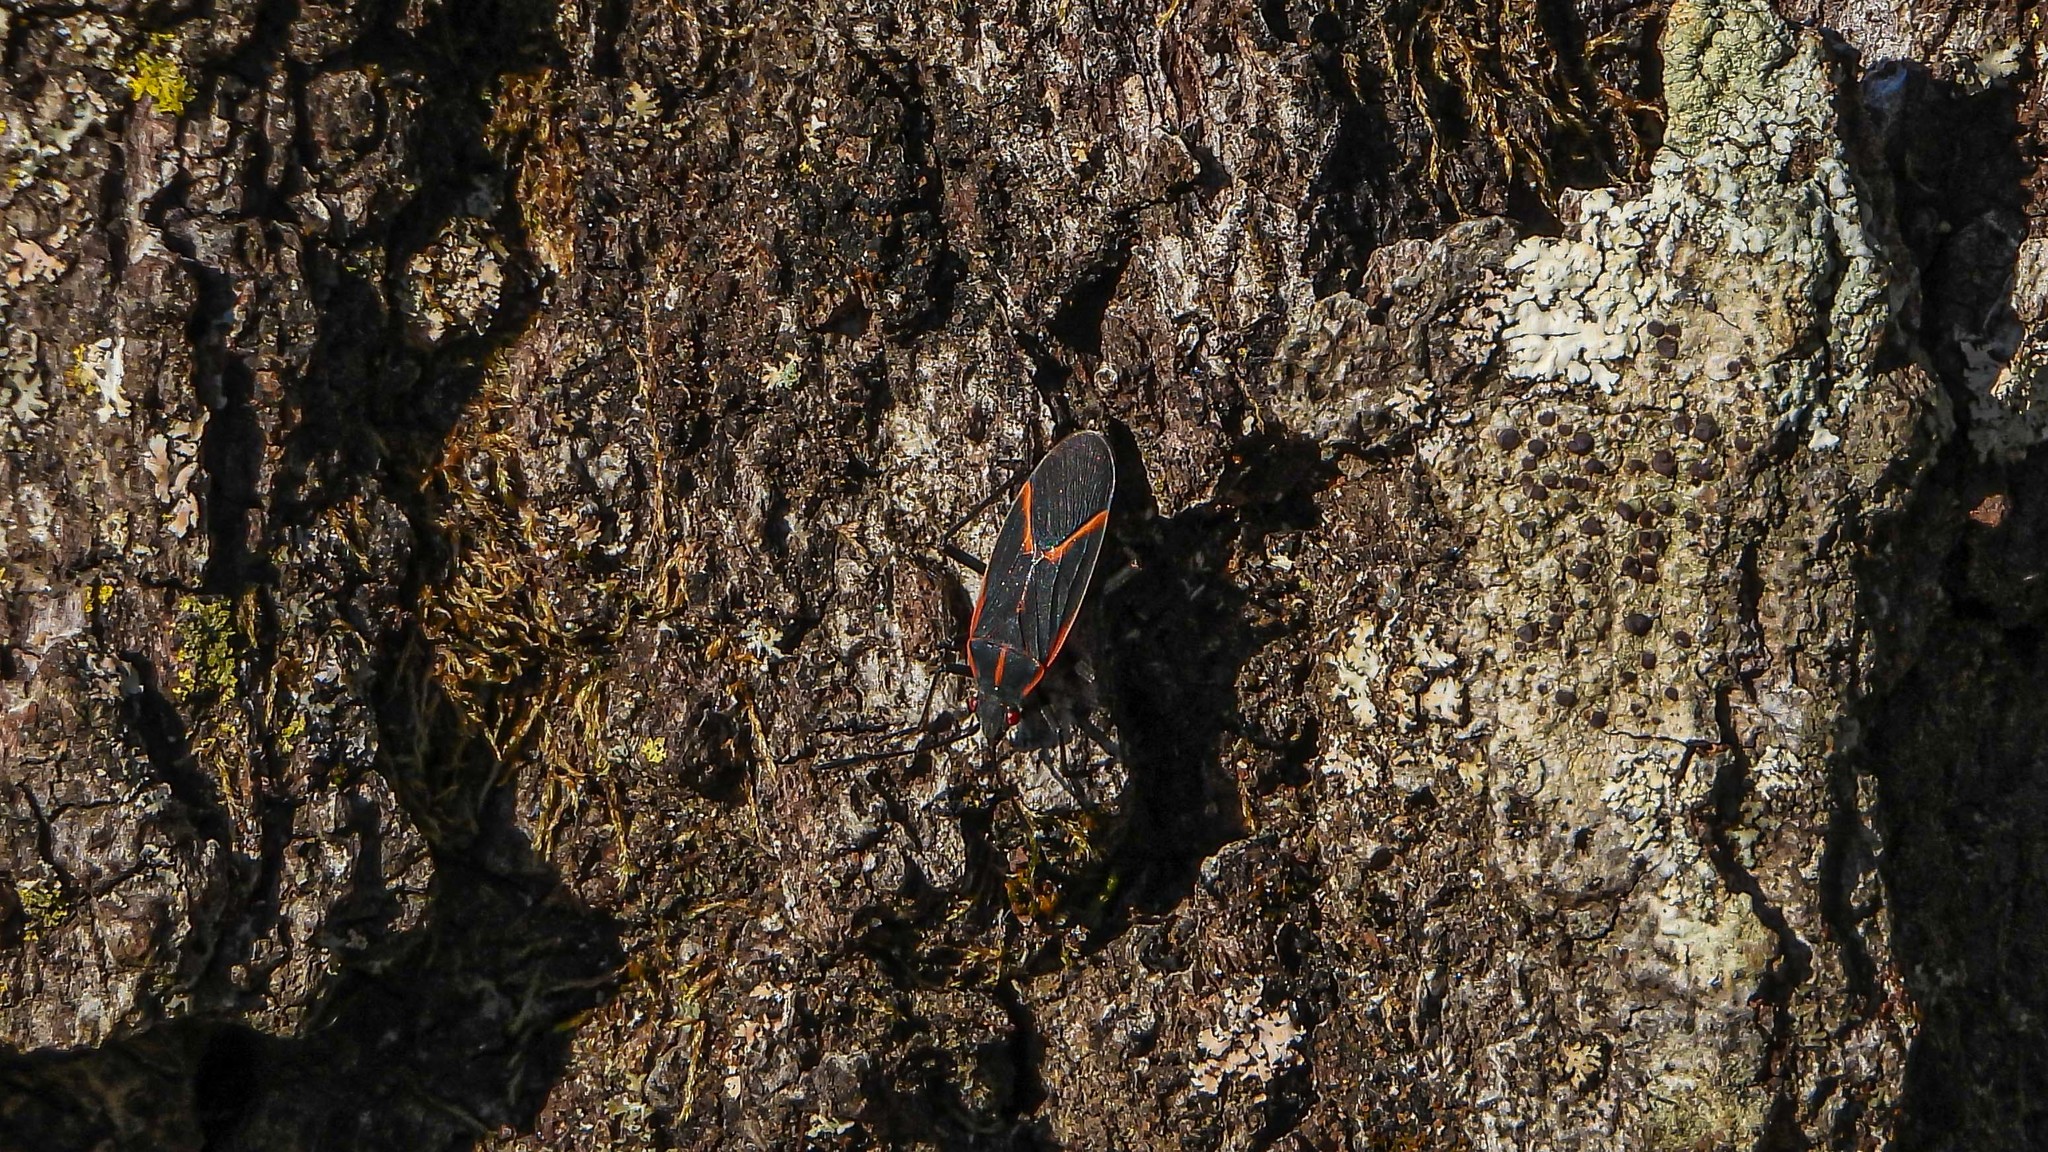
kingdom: Animalia
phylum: Arthropoda
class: Insecta
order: Hemiptera
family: Rhopalidae
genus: Boisea
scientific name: Boisea trivittata
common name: Boxelder bug
